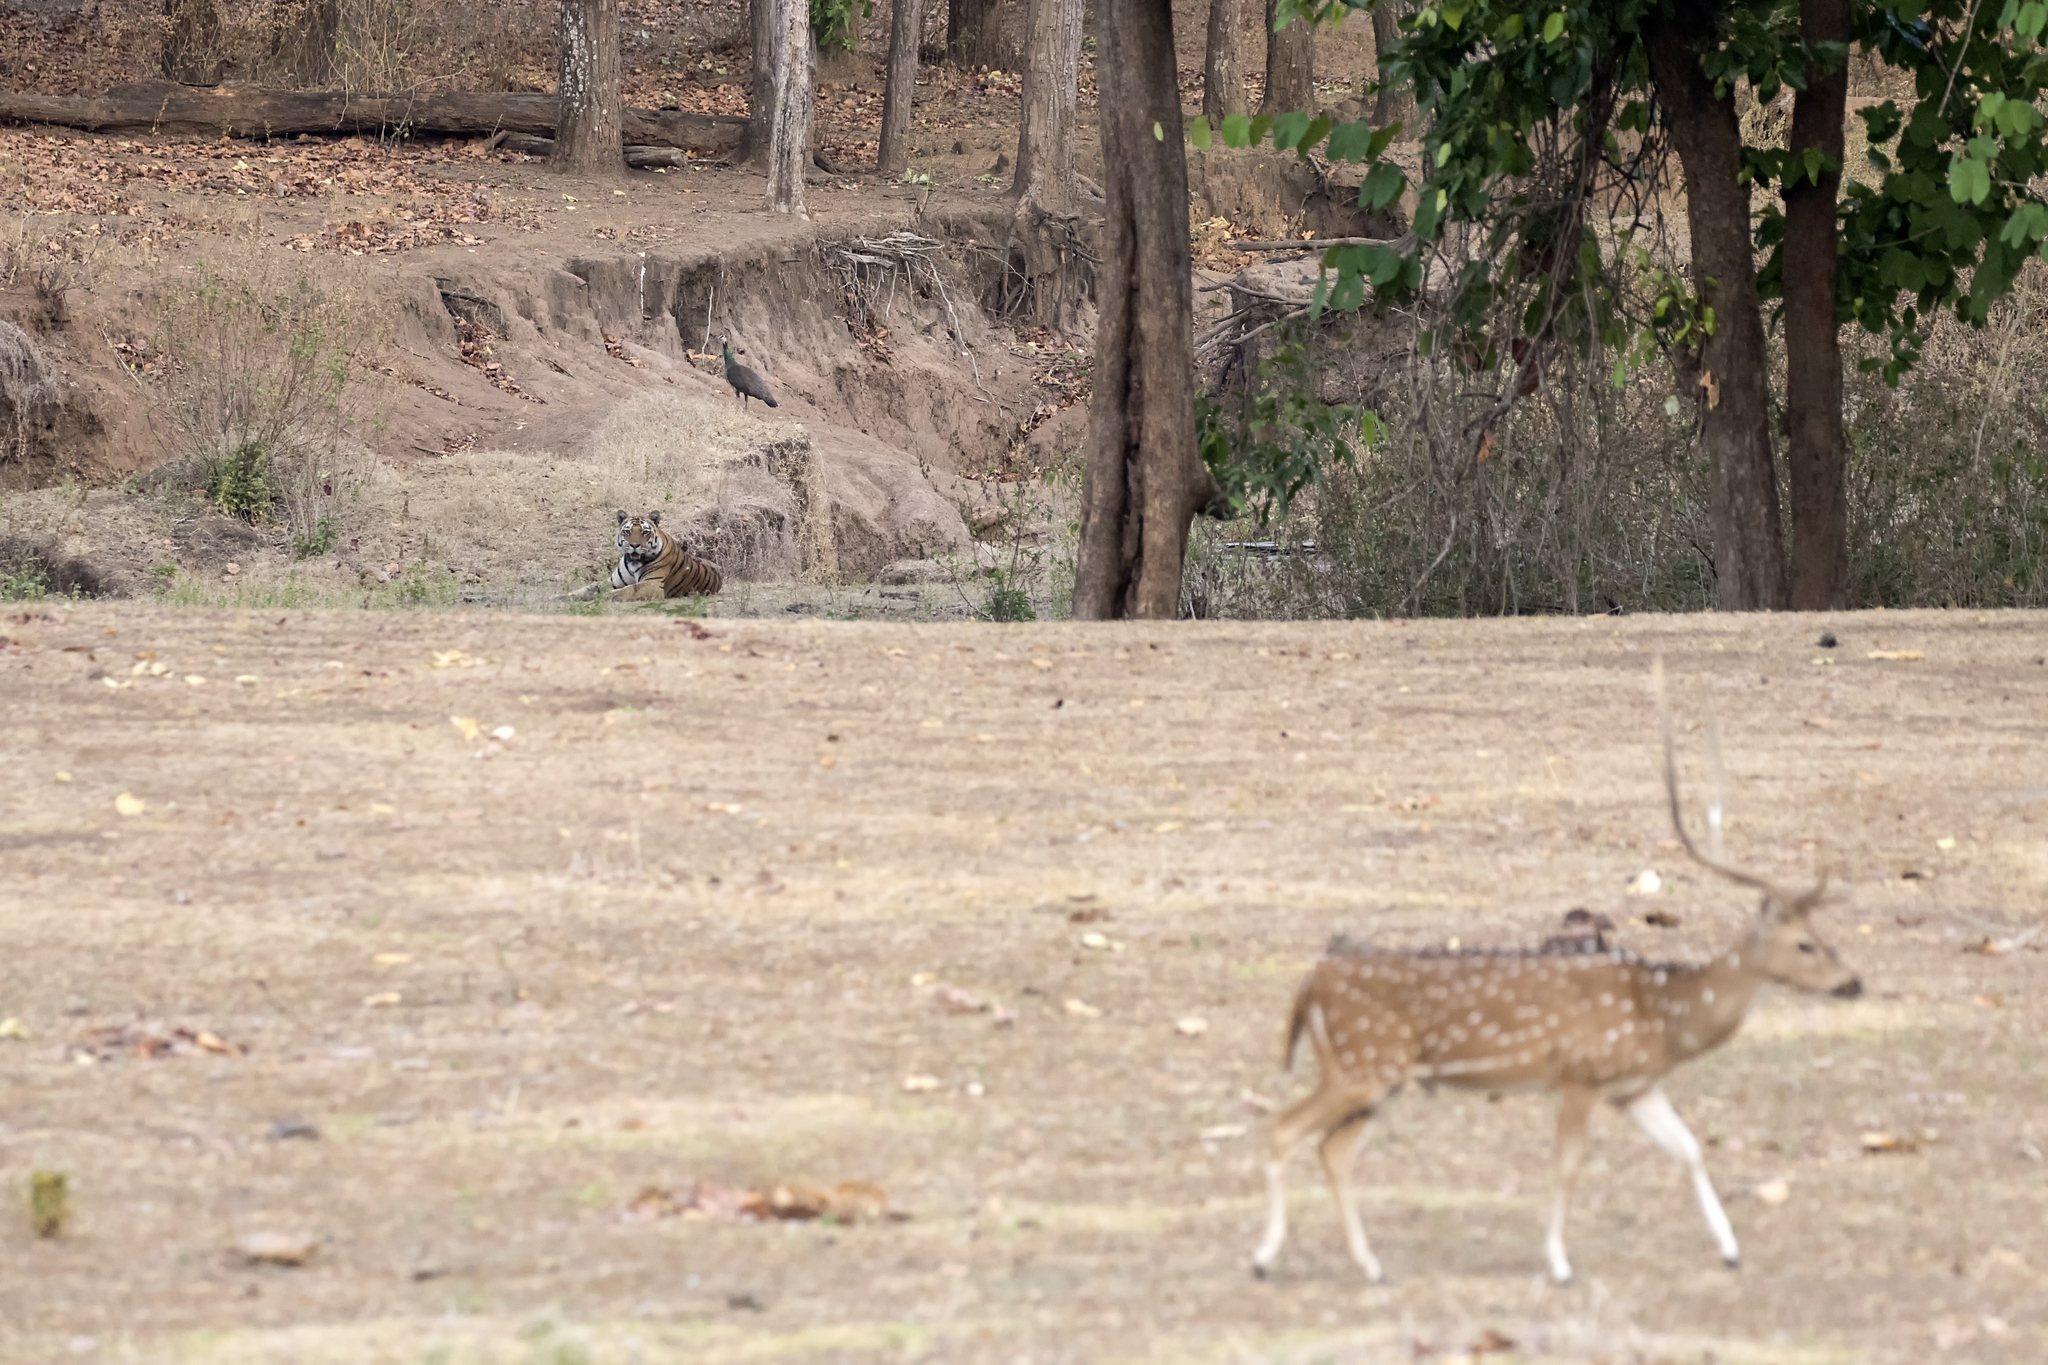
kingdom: Animalia
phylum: Chordata
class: Mammalia
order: Carnivora
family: Felidae
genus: Panthera
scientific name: Panthera tigris
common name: Tiger
